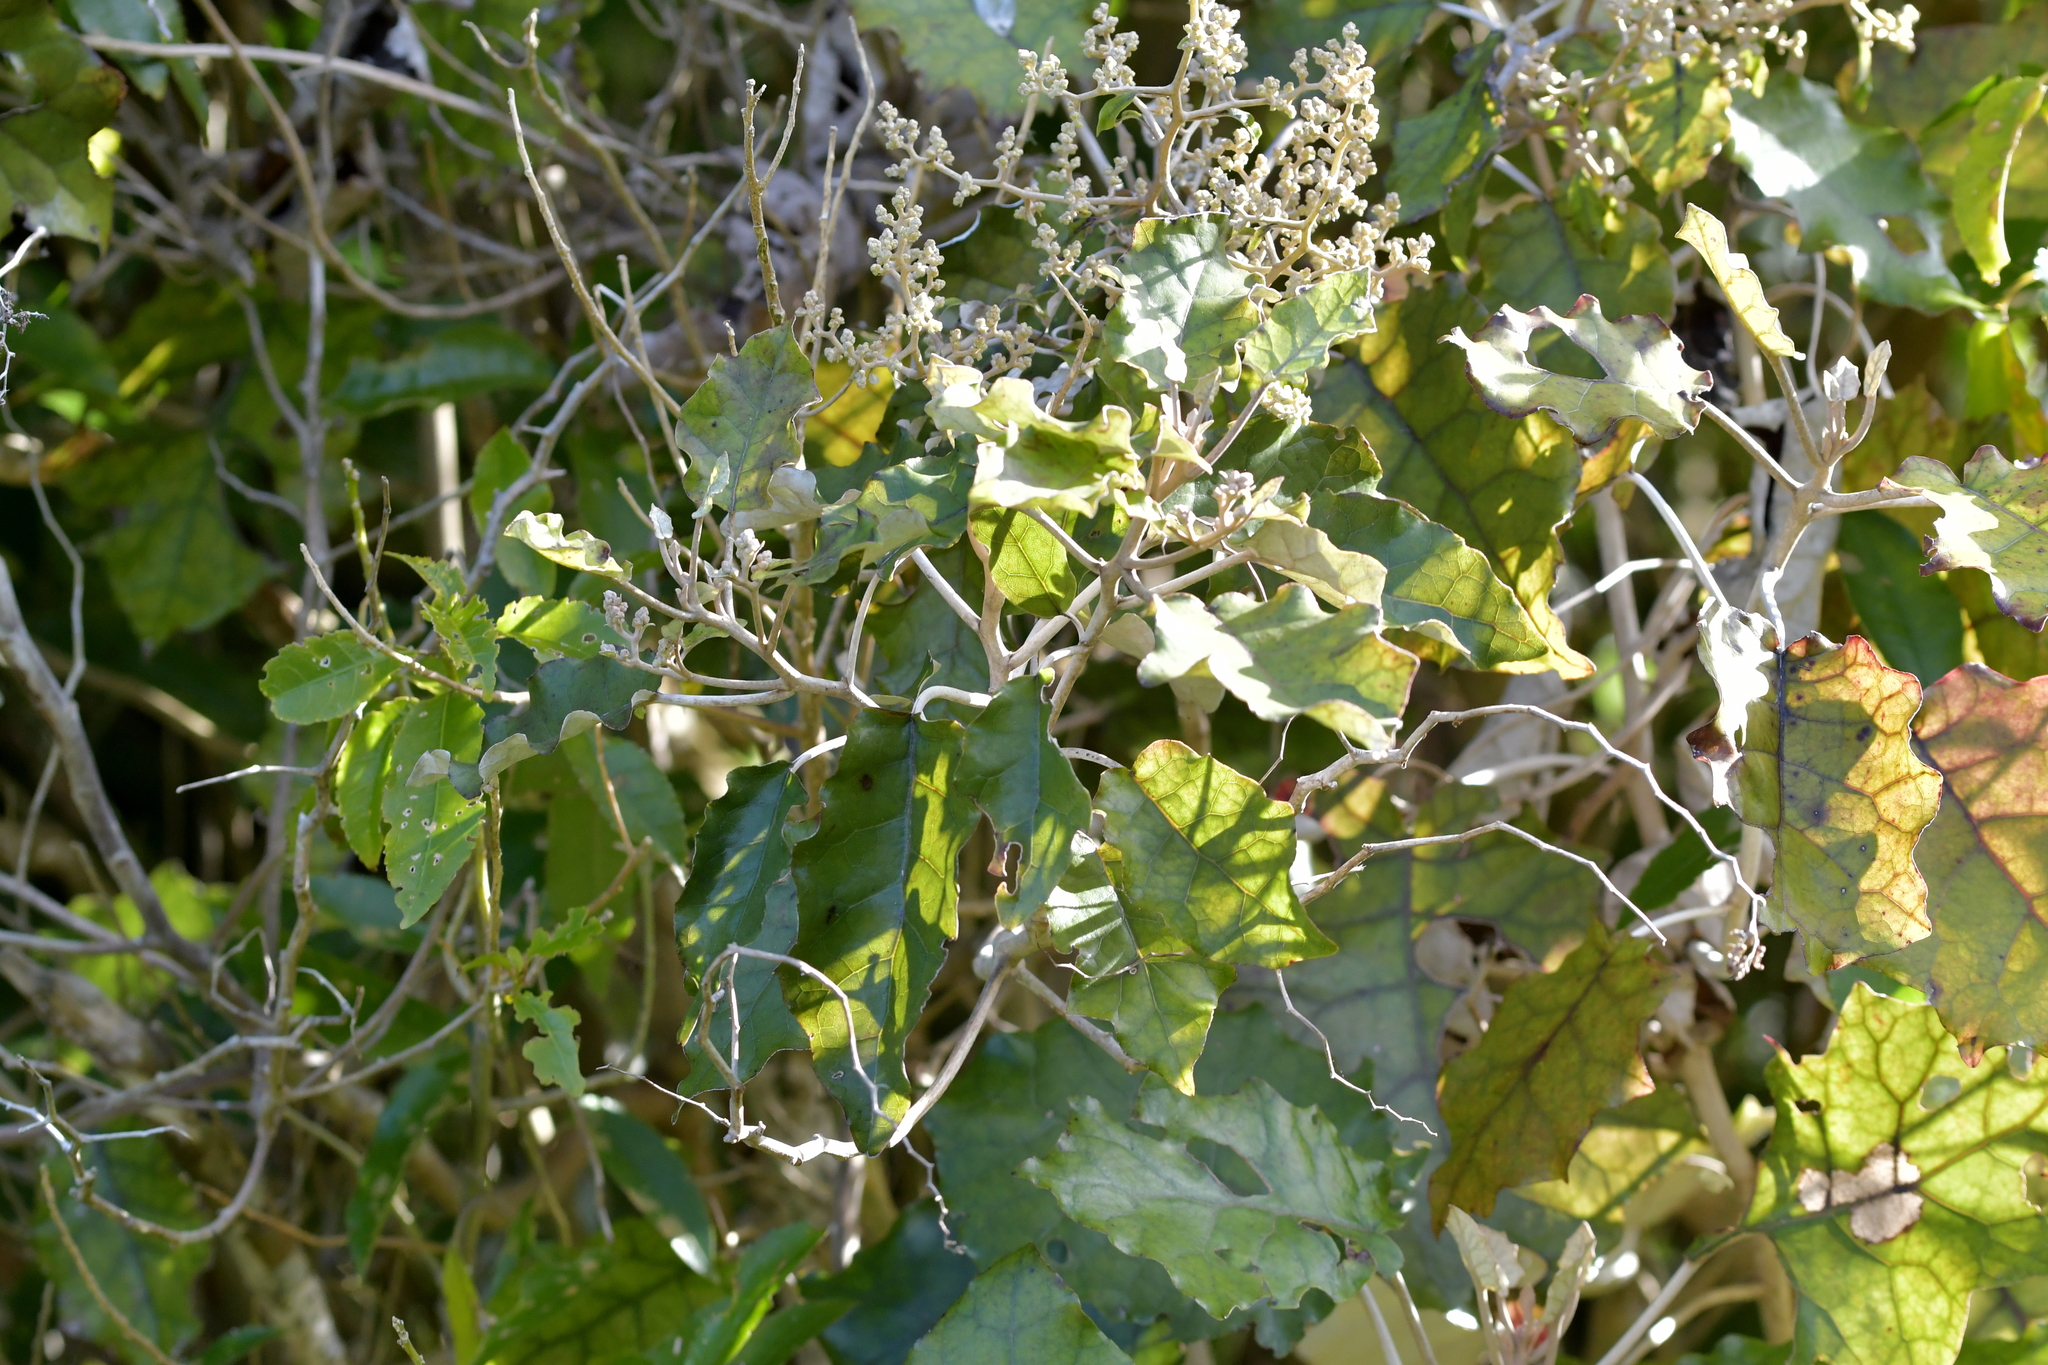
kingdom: Plantae
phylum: Tracheophyta
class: Magnoliopsida
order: Asterales
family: Asteraceae
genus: Brachyglottis
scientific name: Brachyglottis repanda
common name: Hedge ragwort
